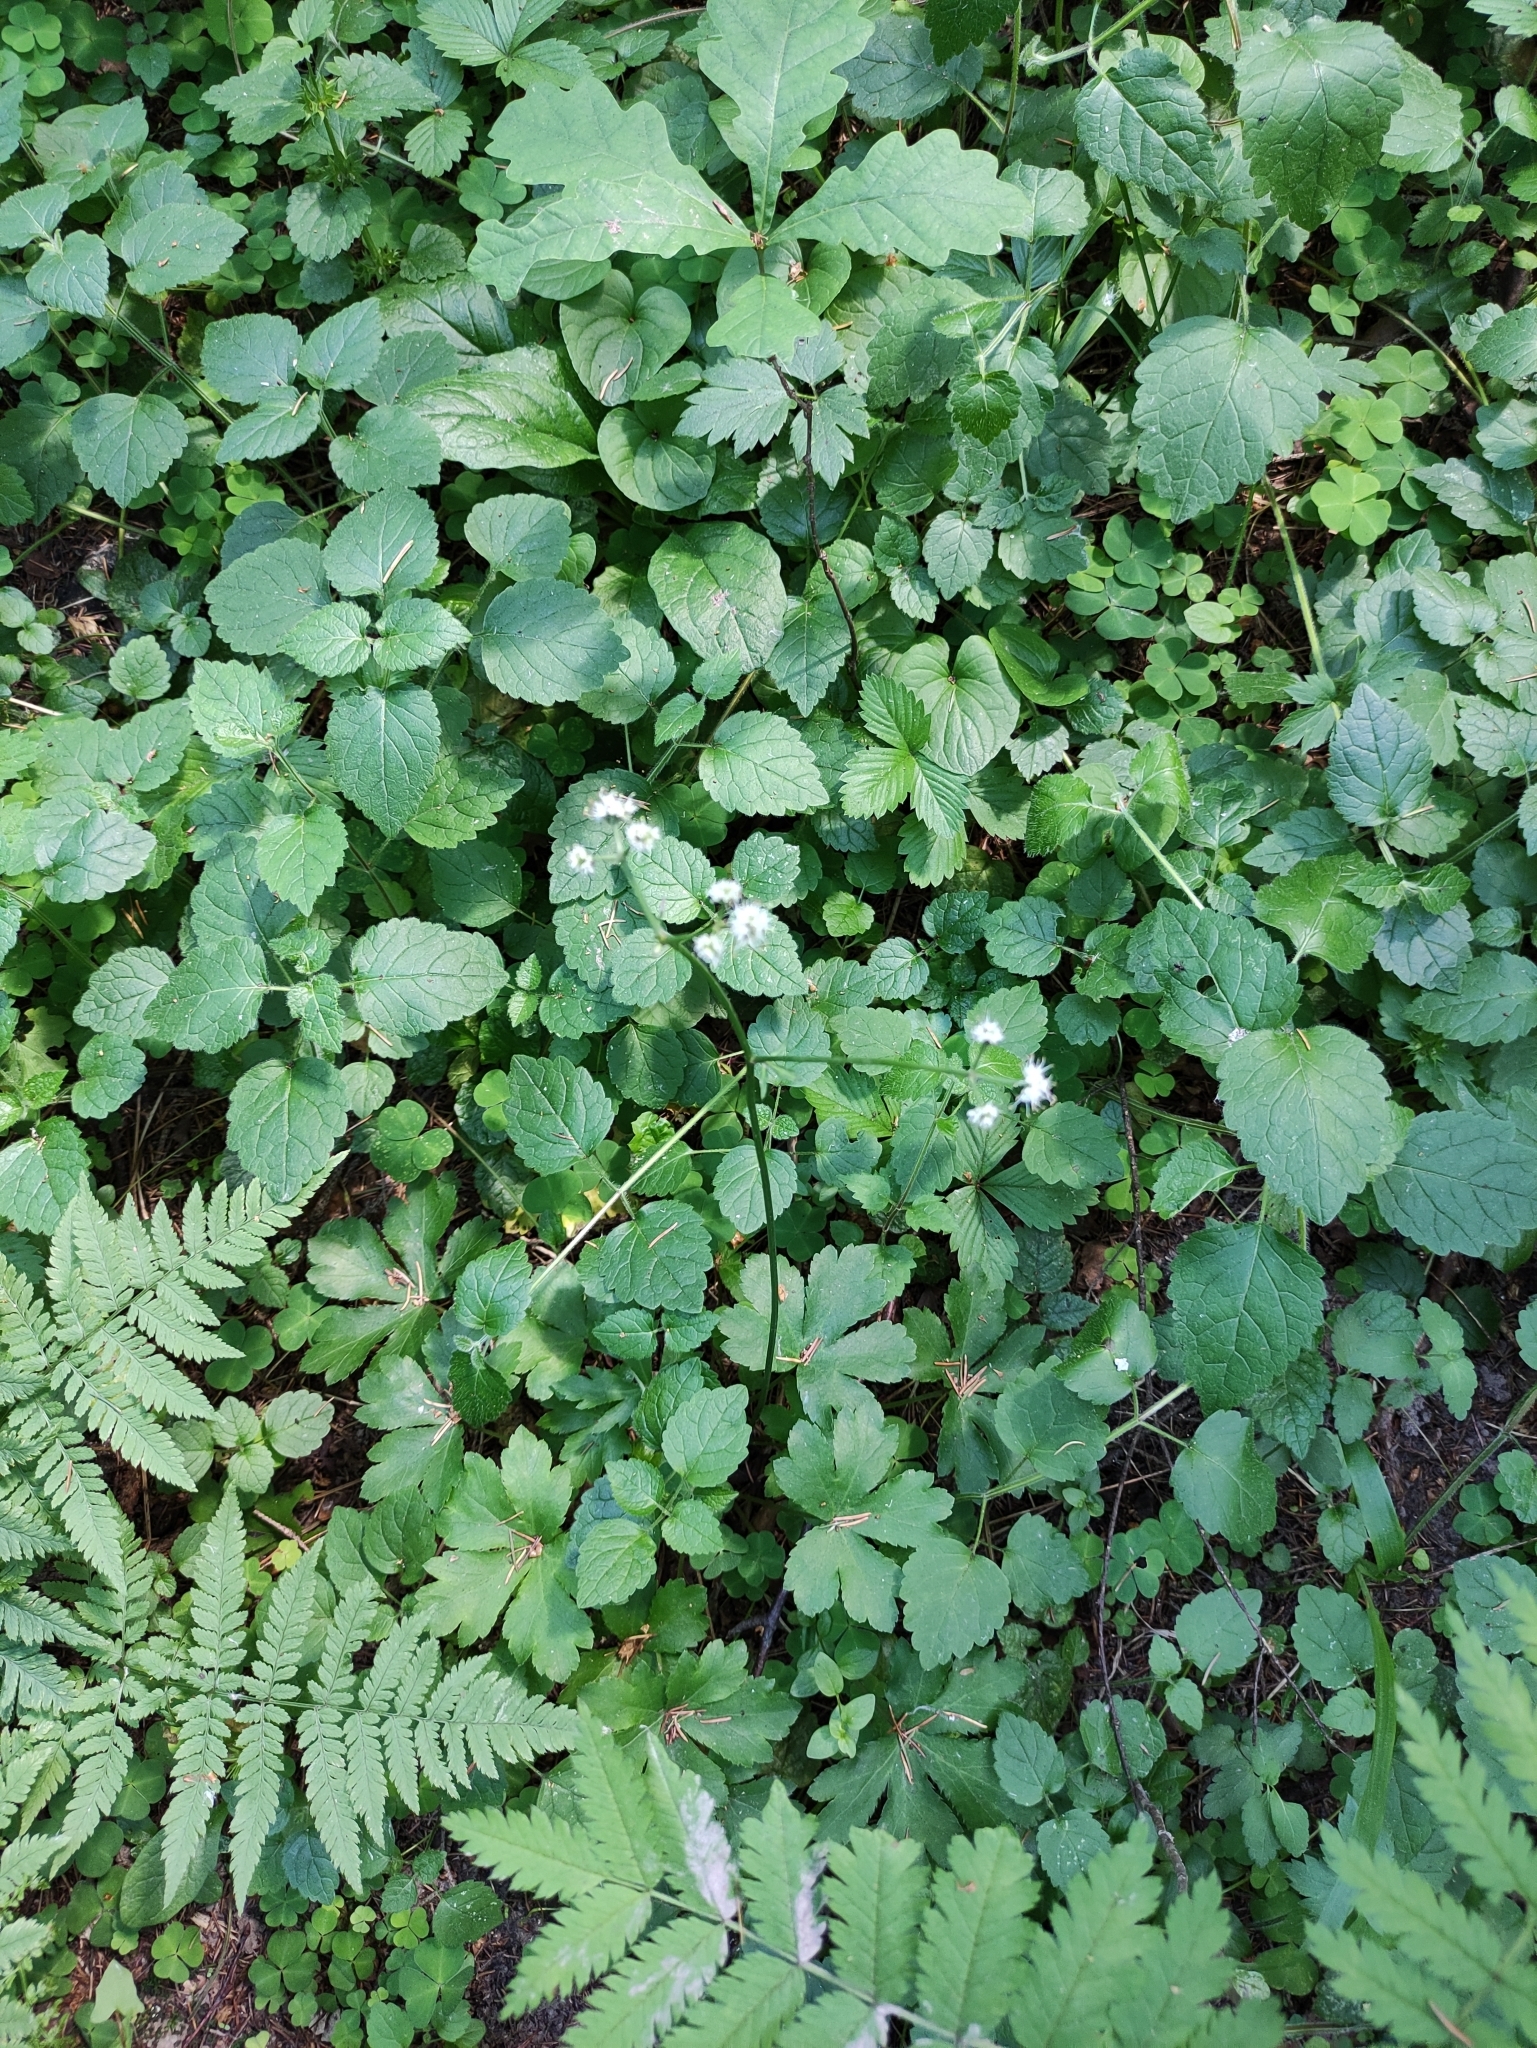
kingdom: Plantae
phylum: Tracheophyta
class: Magnoliopsida
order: Apiales
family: Apiaceae
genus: Sanicula
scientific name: Sanicula europaea
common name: Sanicle
